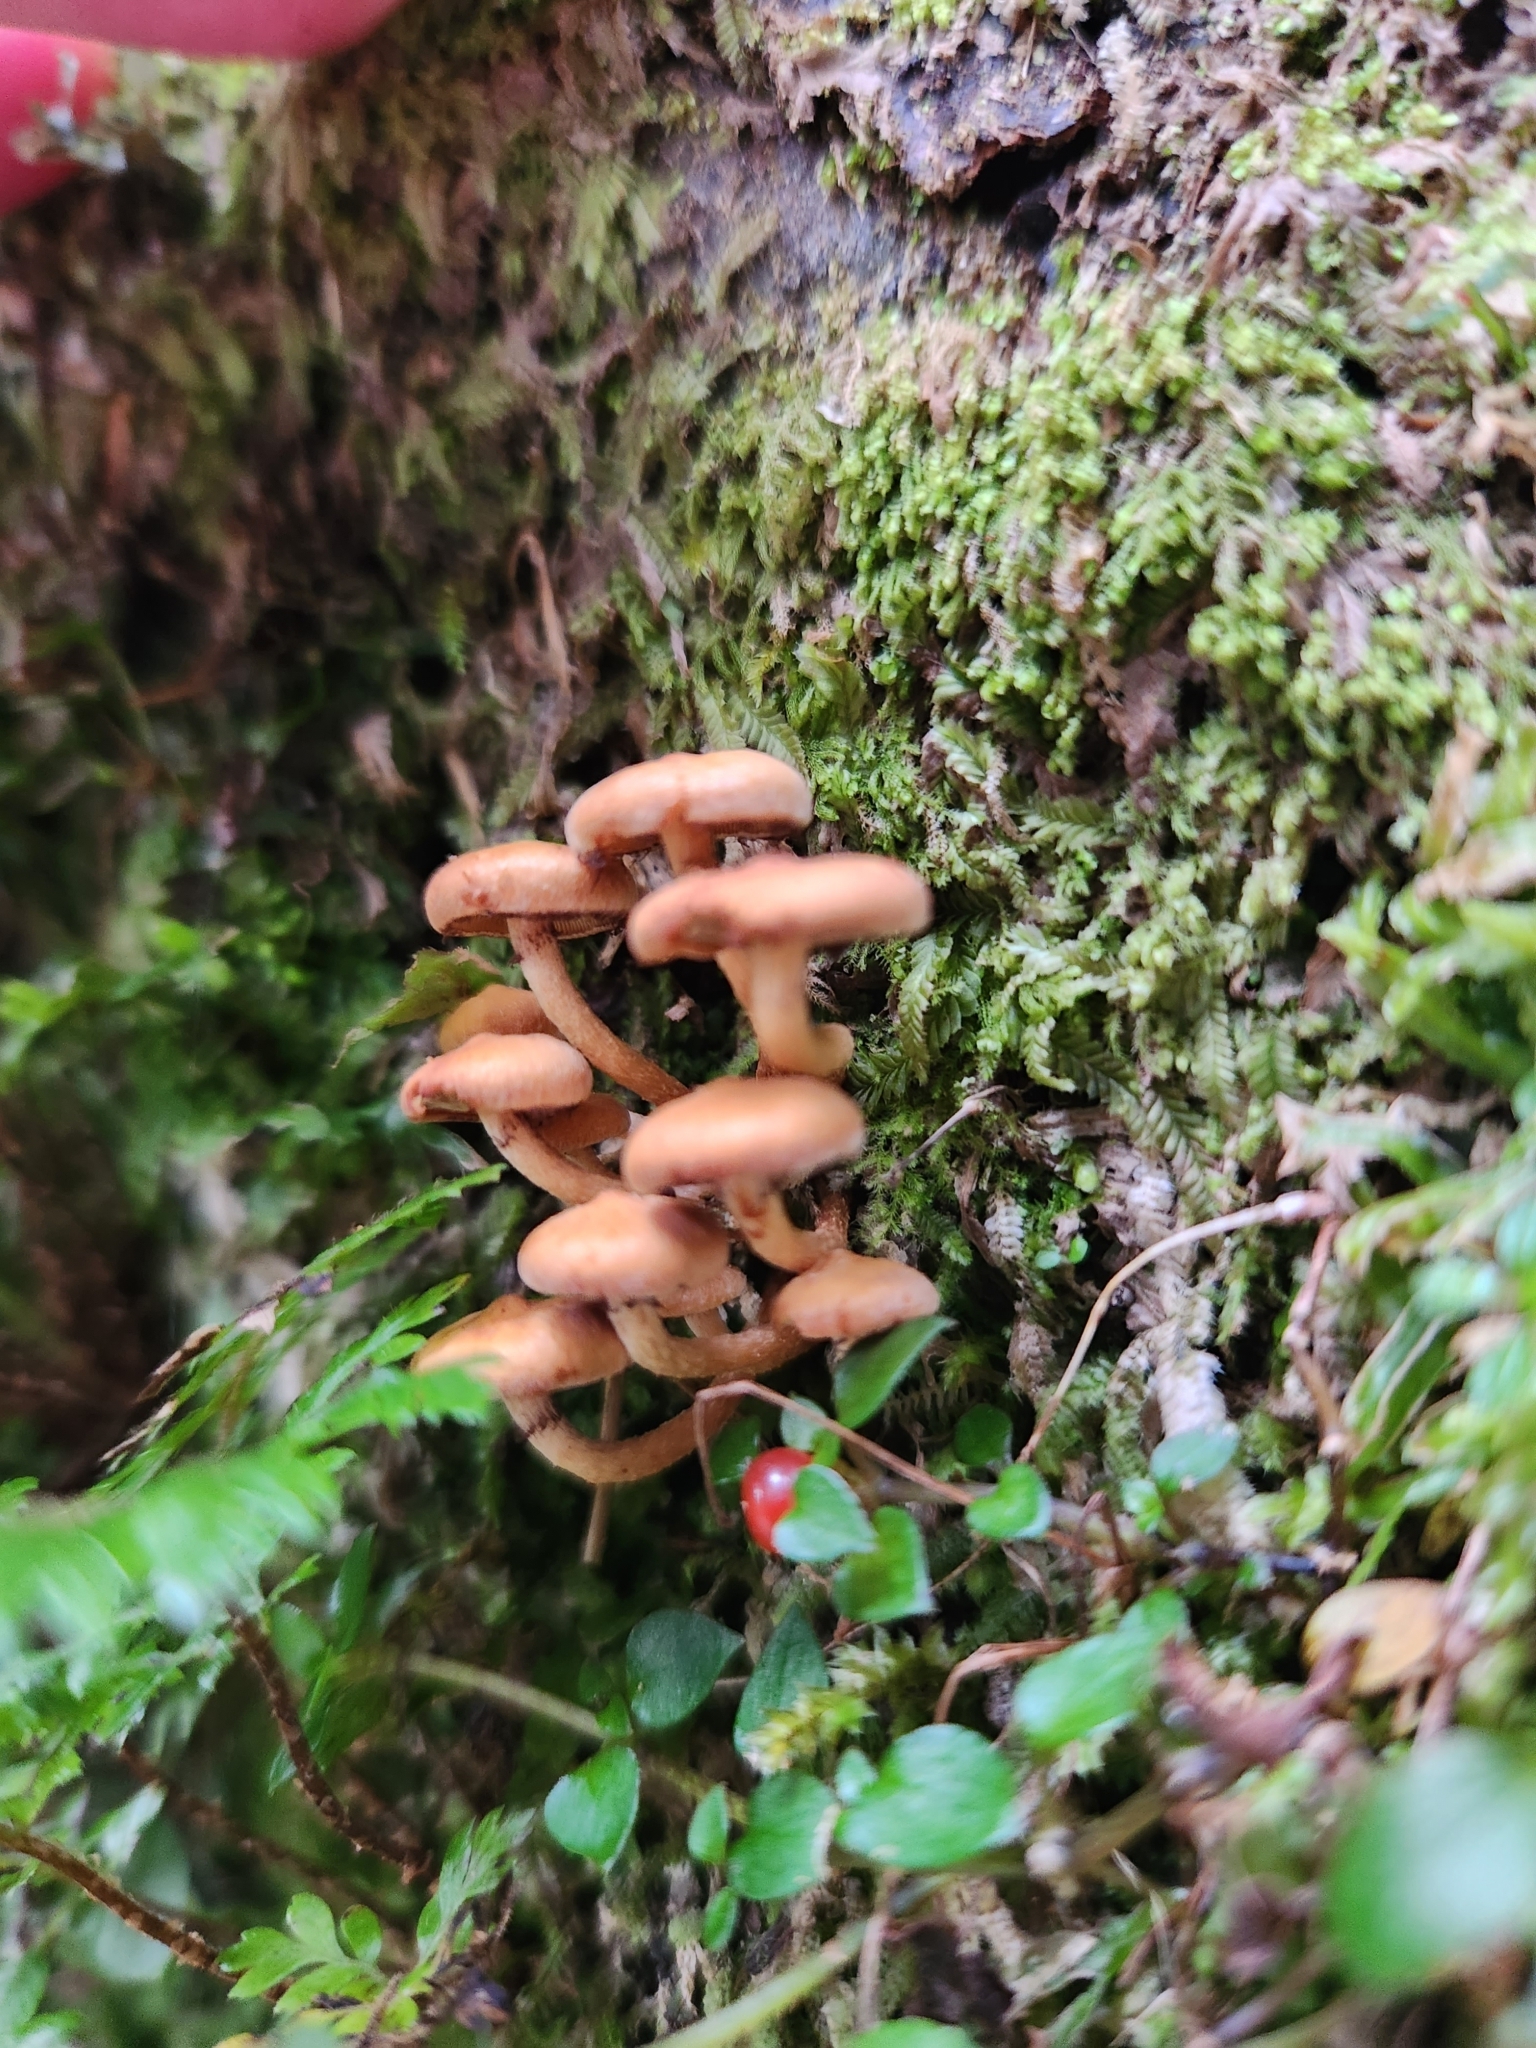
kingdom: Fungi
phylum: Basidiomycota
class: Agaricomycetes
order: Agaricales
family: Strophariaceae
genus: Hypholoma
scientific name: Hypholoma acutum
